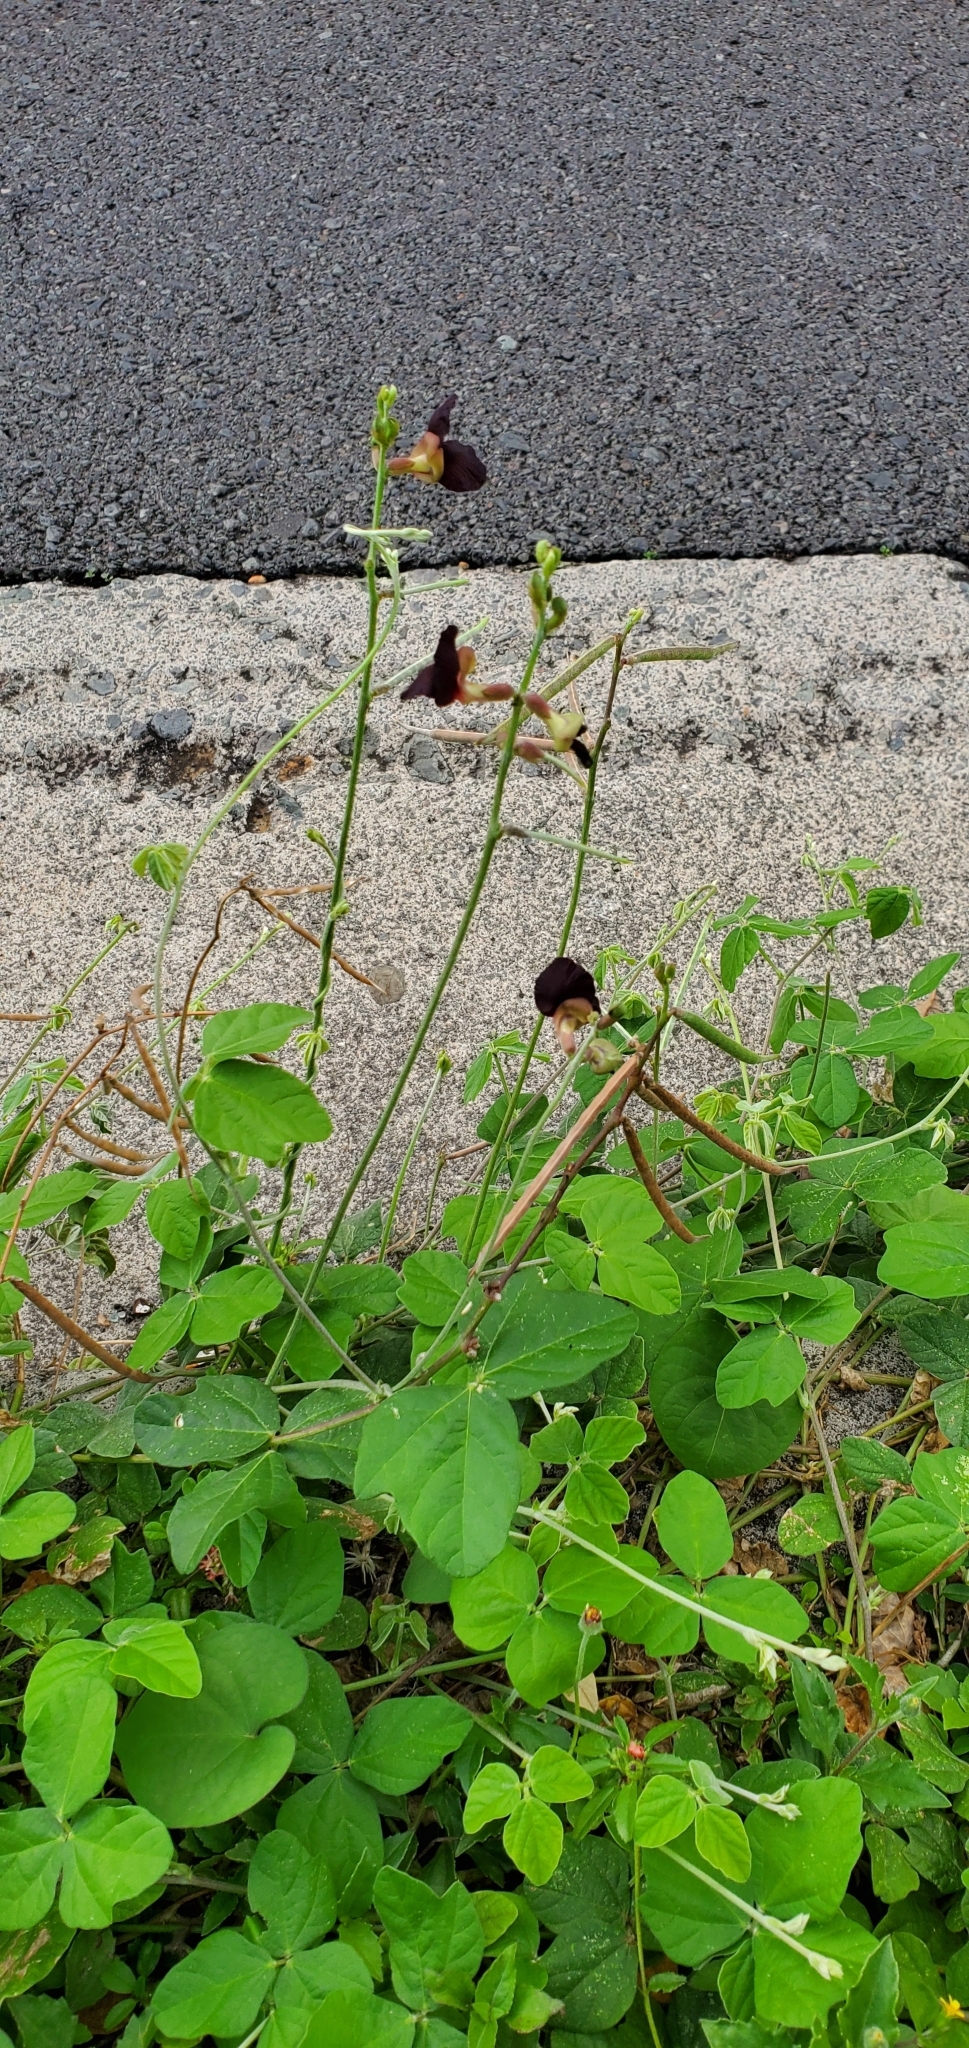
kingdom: Plantae
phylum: Tracheophyta
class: Magnoliopsida
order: Fabales
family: Fabaceae
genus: Macroptilium
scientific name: Macroptilium atropurpureum
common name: Purple bushbean
